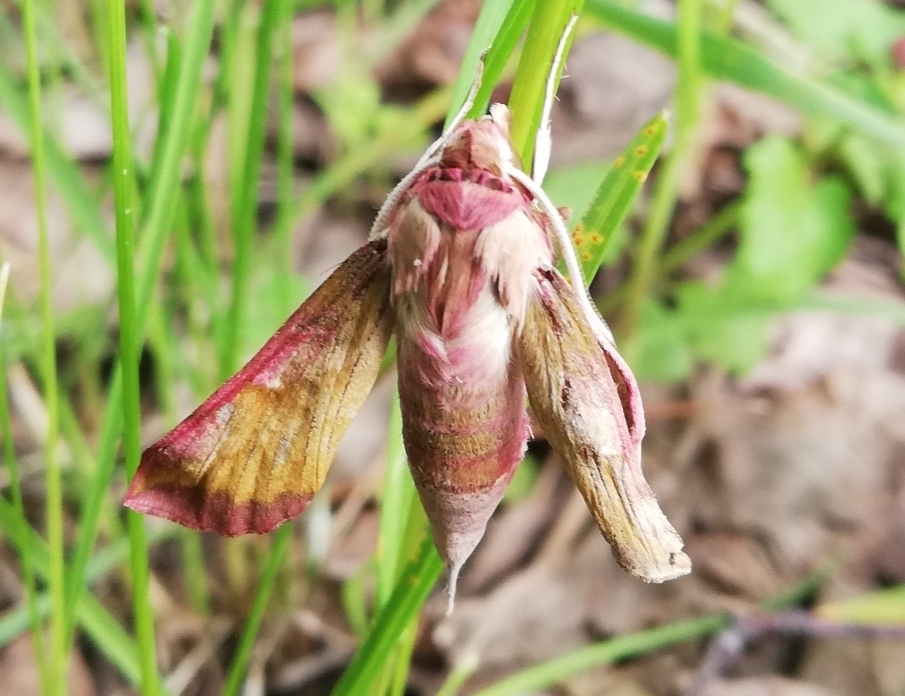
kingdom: Animalia
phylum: Arthropoda
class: Insecta
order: Lepidoptera
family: Sphingidae
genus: Deilephila
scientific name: Deilephila porcellus
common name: Small elephant hawk-moth
